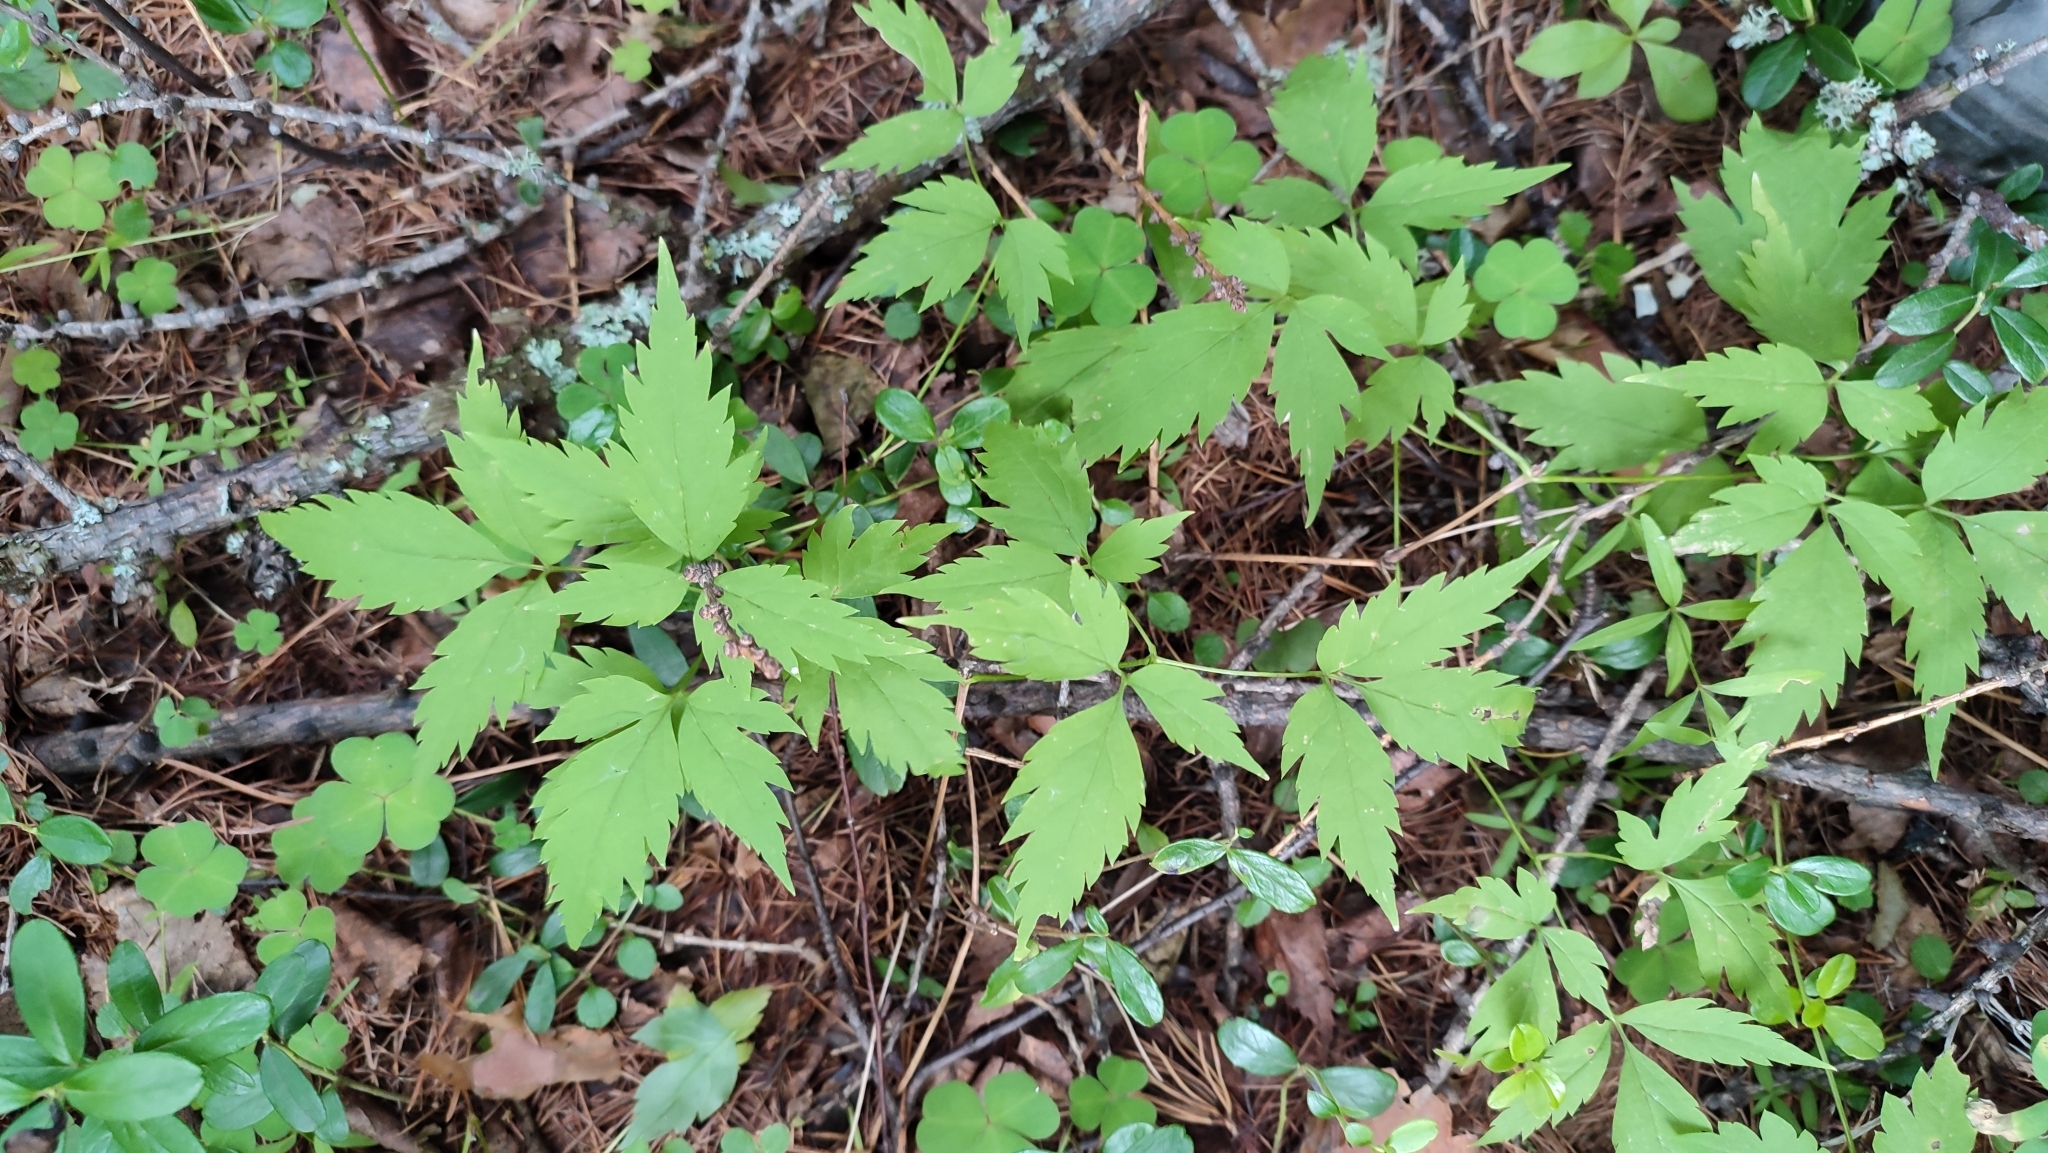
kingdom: Plantae
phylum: Tracheophyta
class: Magnoliopsida
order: Ranunculales
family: Ranunculaceae
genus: Clematis
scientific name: Clematis sibirica
